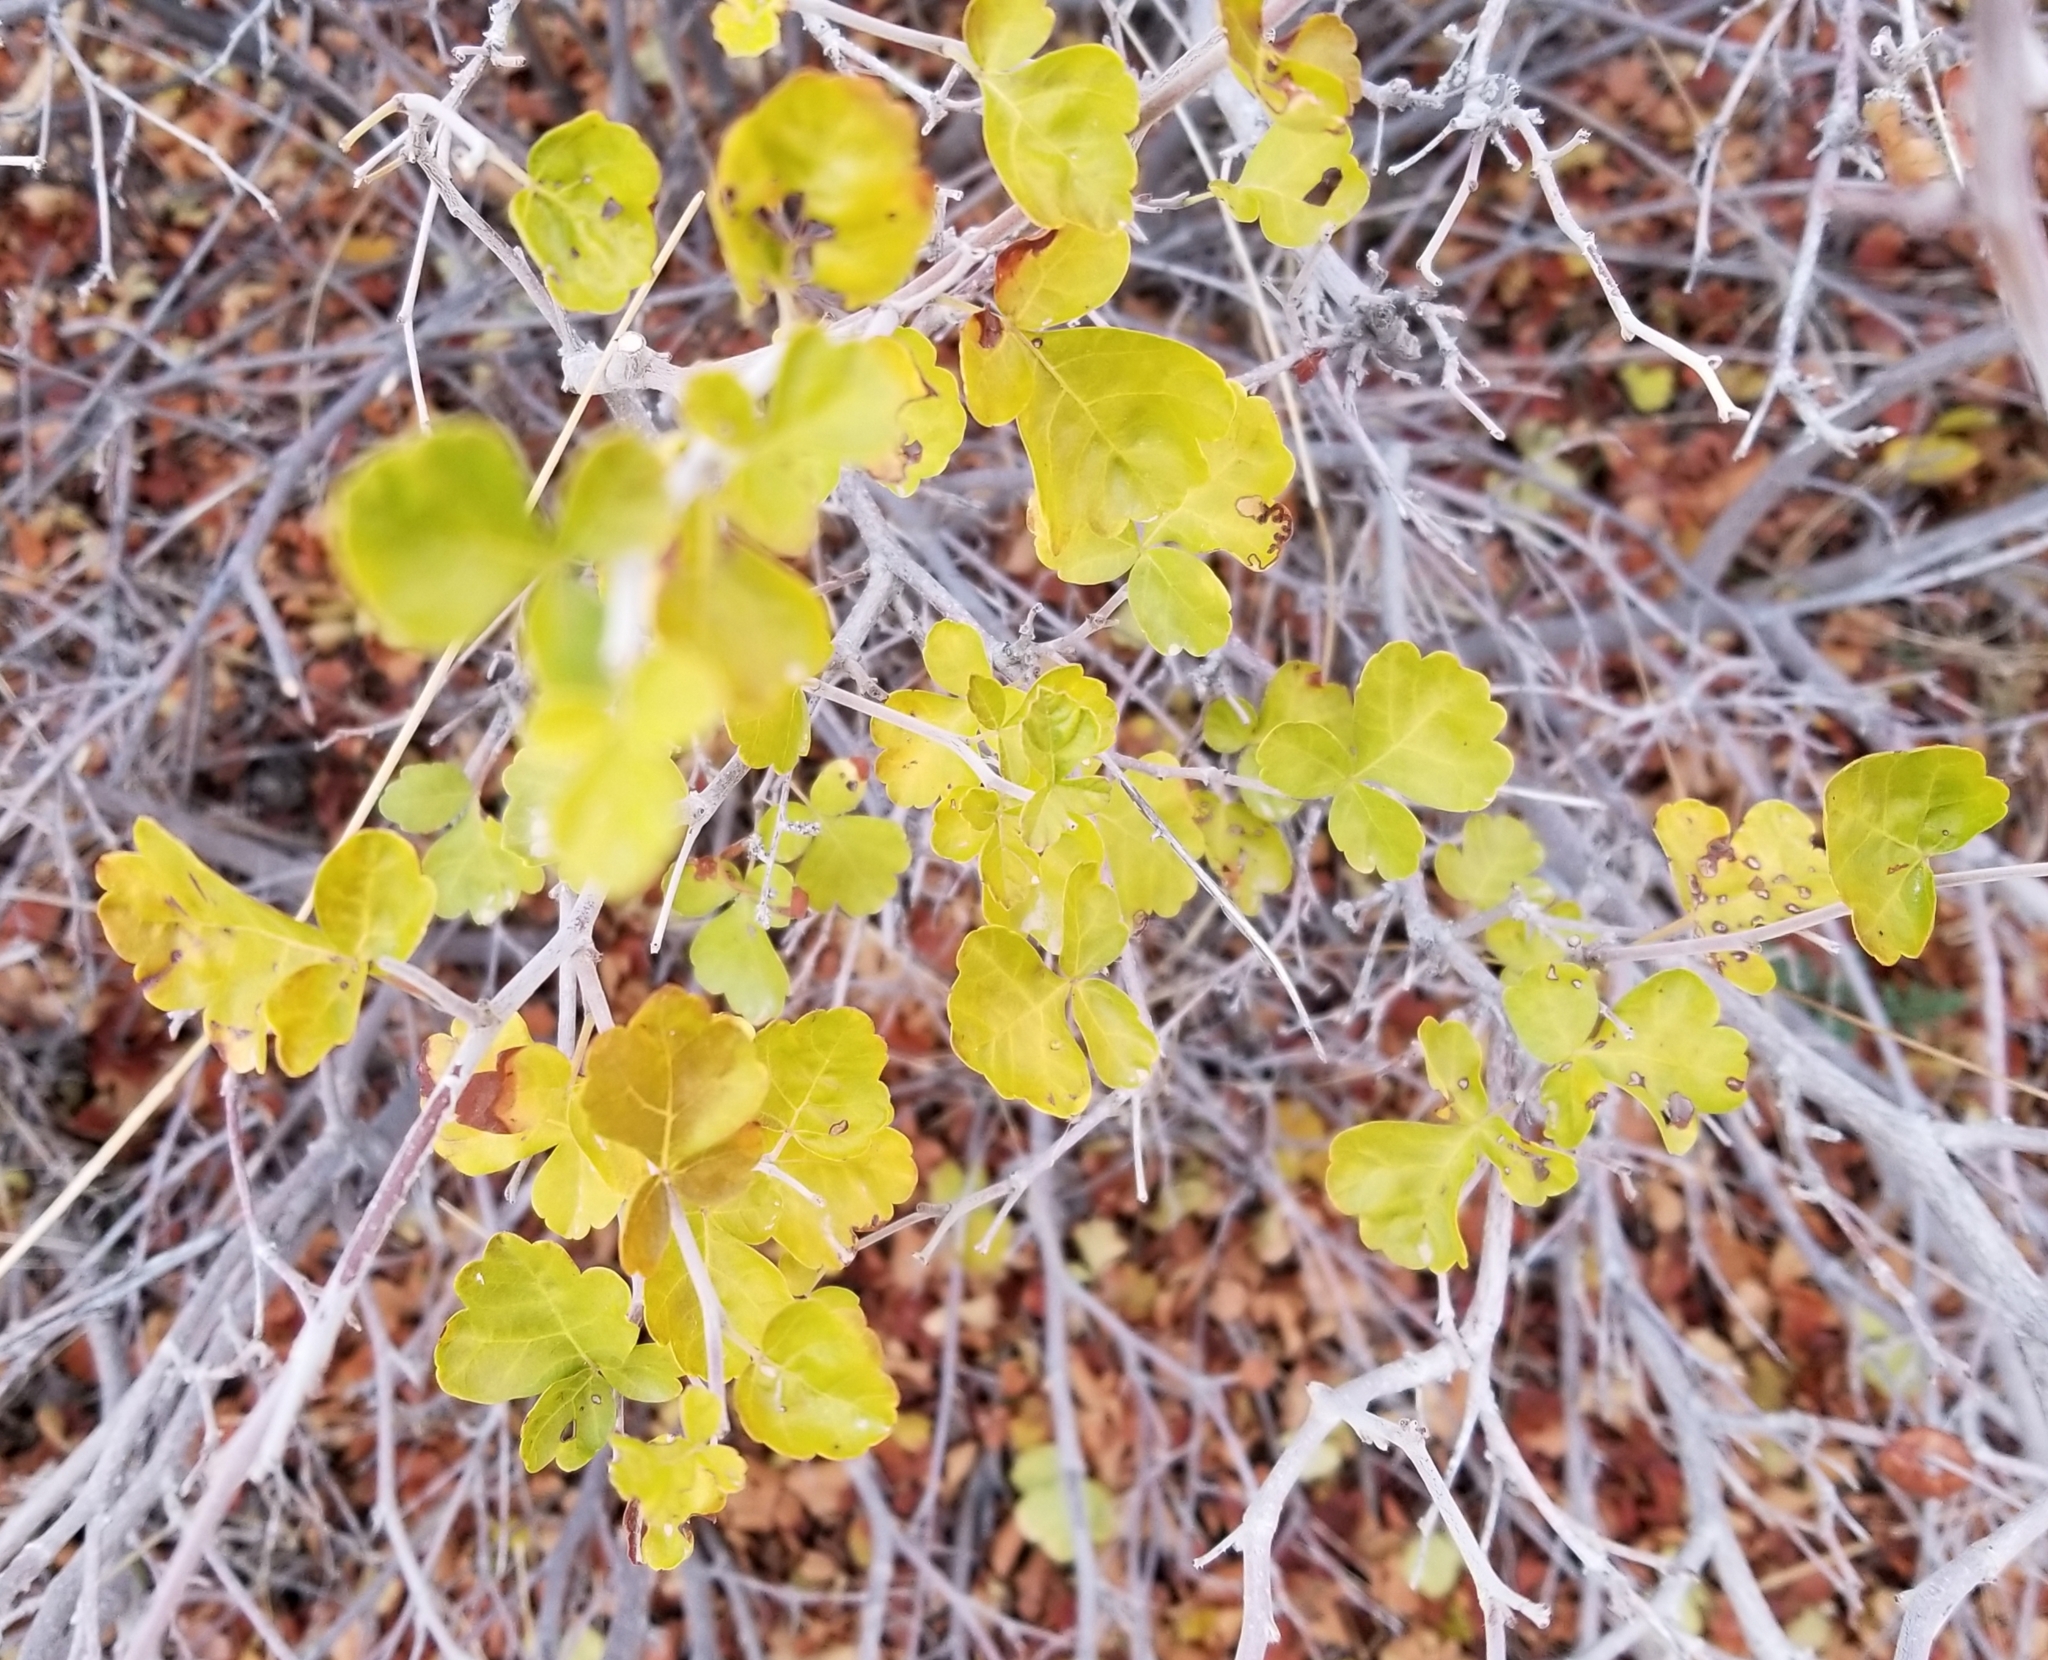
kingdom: Plantae
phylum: Tracheophyta
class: Magnoliopsida
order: Sapindales
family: Anacardiaceae
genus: Rhus
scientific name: Rhus aromatica
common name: Aromatic sumac
